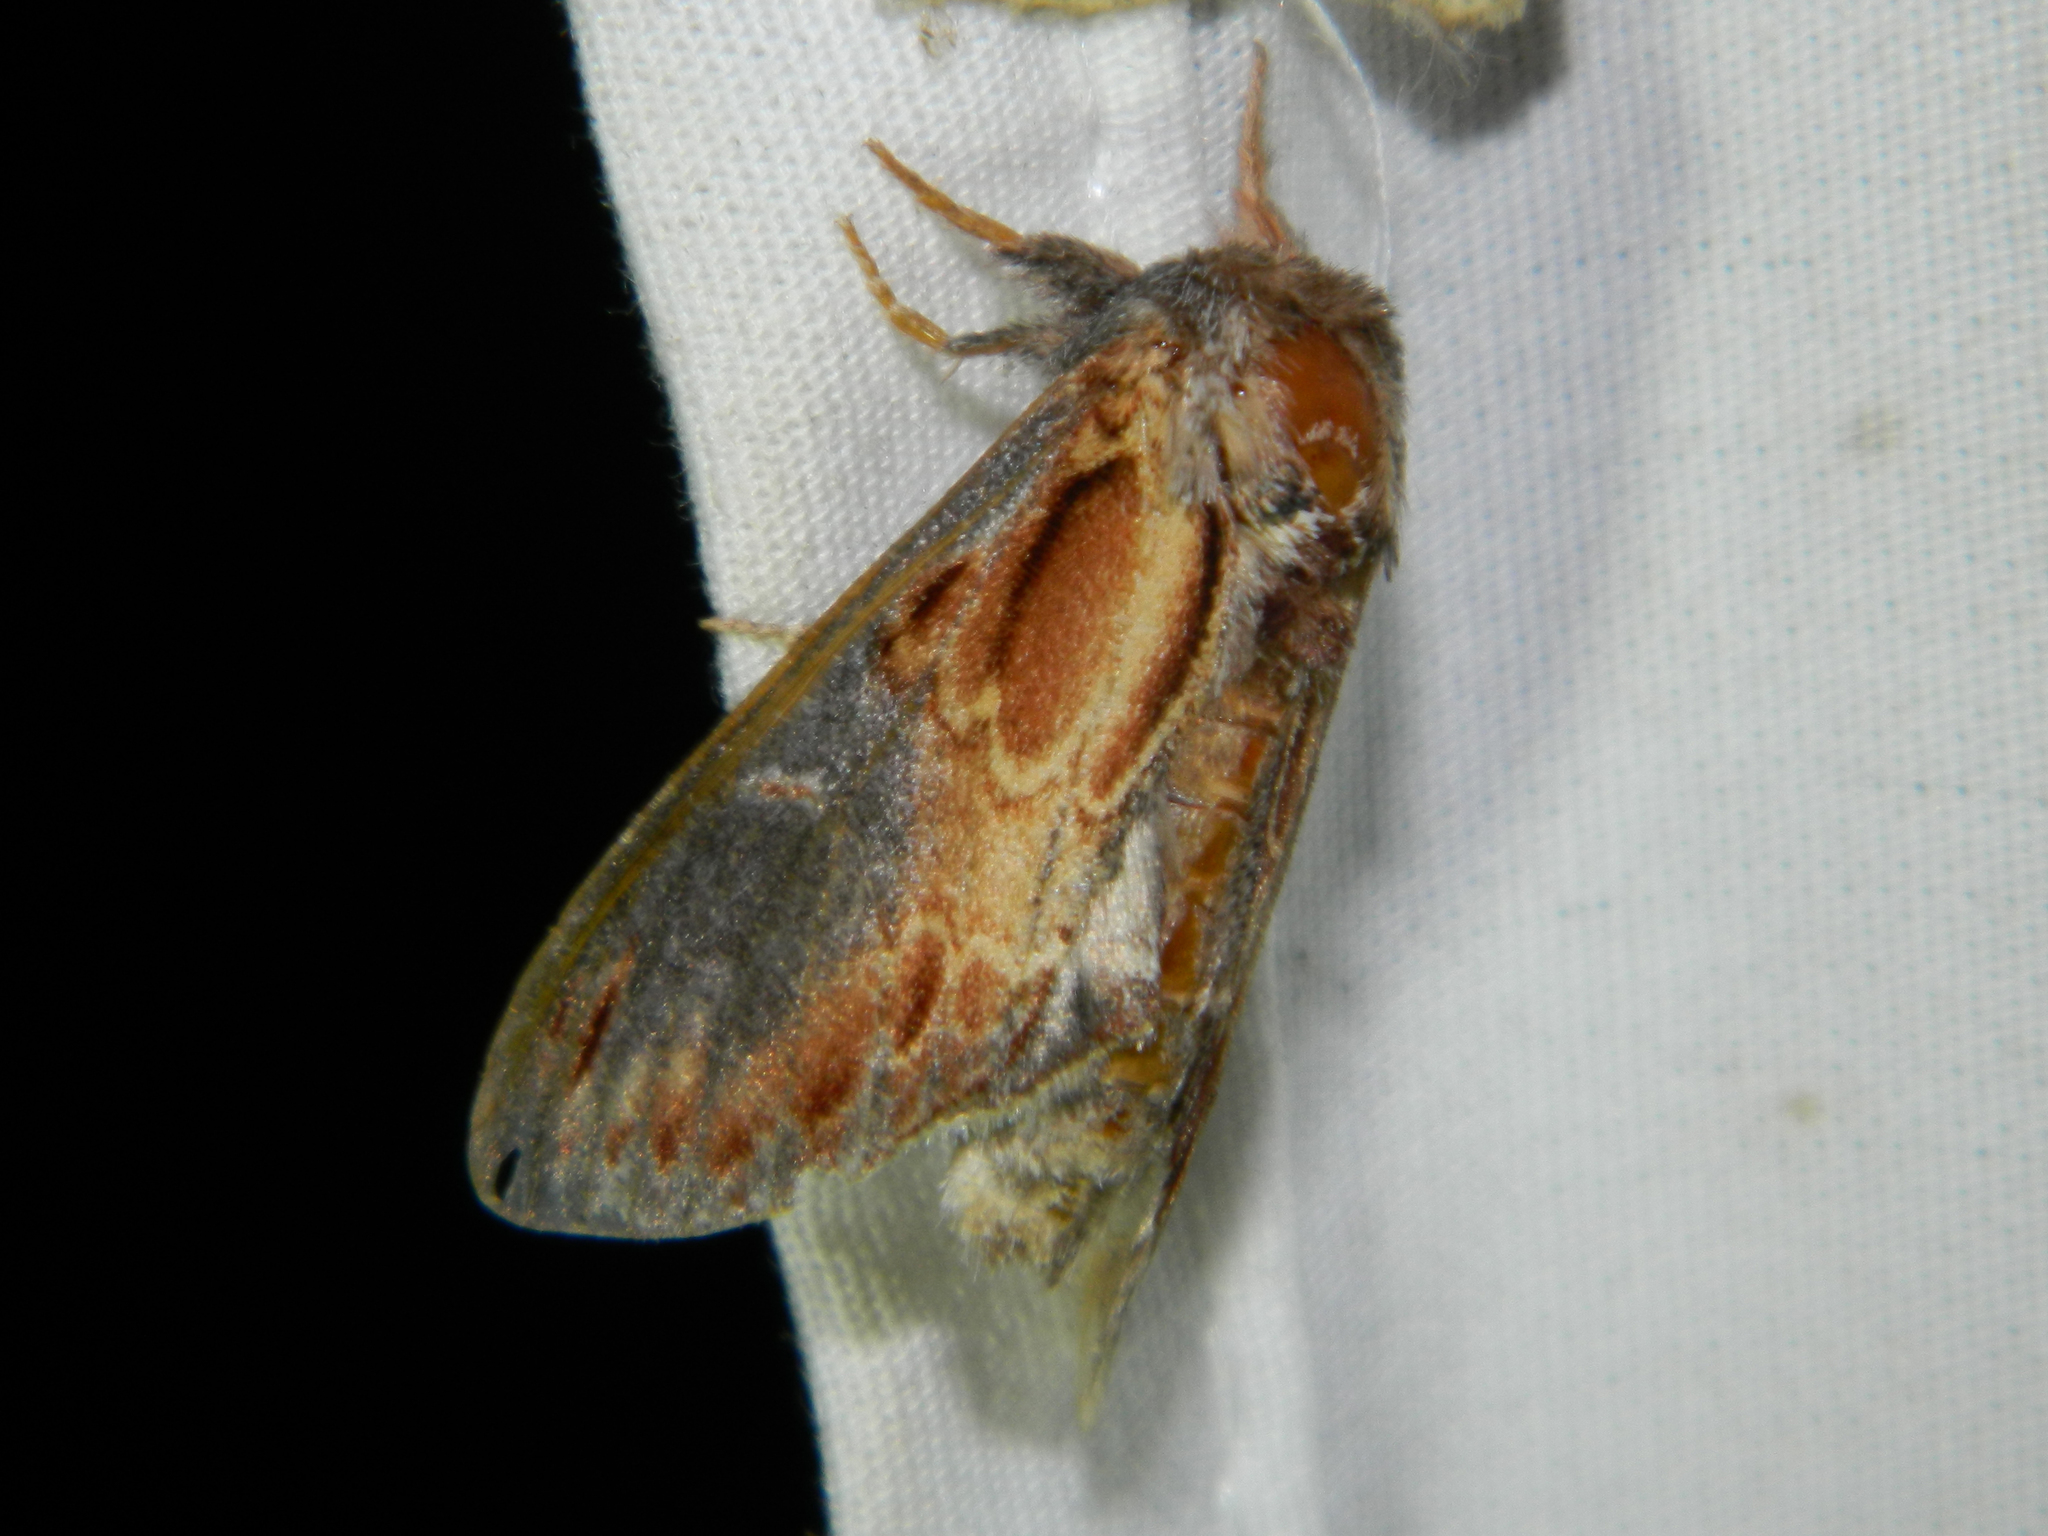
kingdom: Animalia
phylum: Arthropoda
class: Insecta
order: Lepidoptera
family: Notodontidae
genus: Notodonta
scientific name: Notodonta scitipennis
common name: Finned-willow prominent moth
